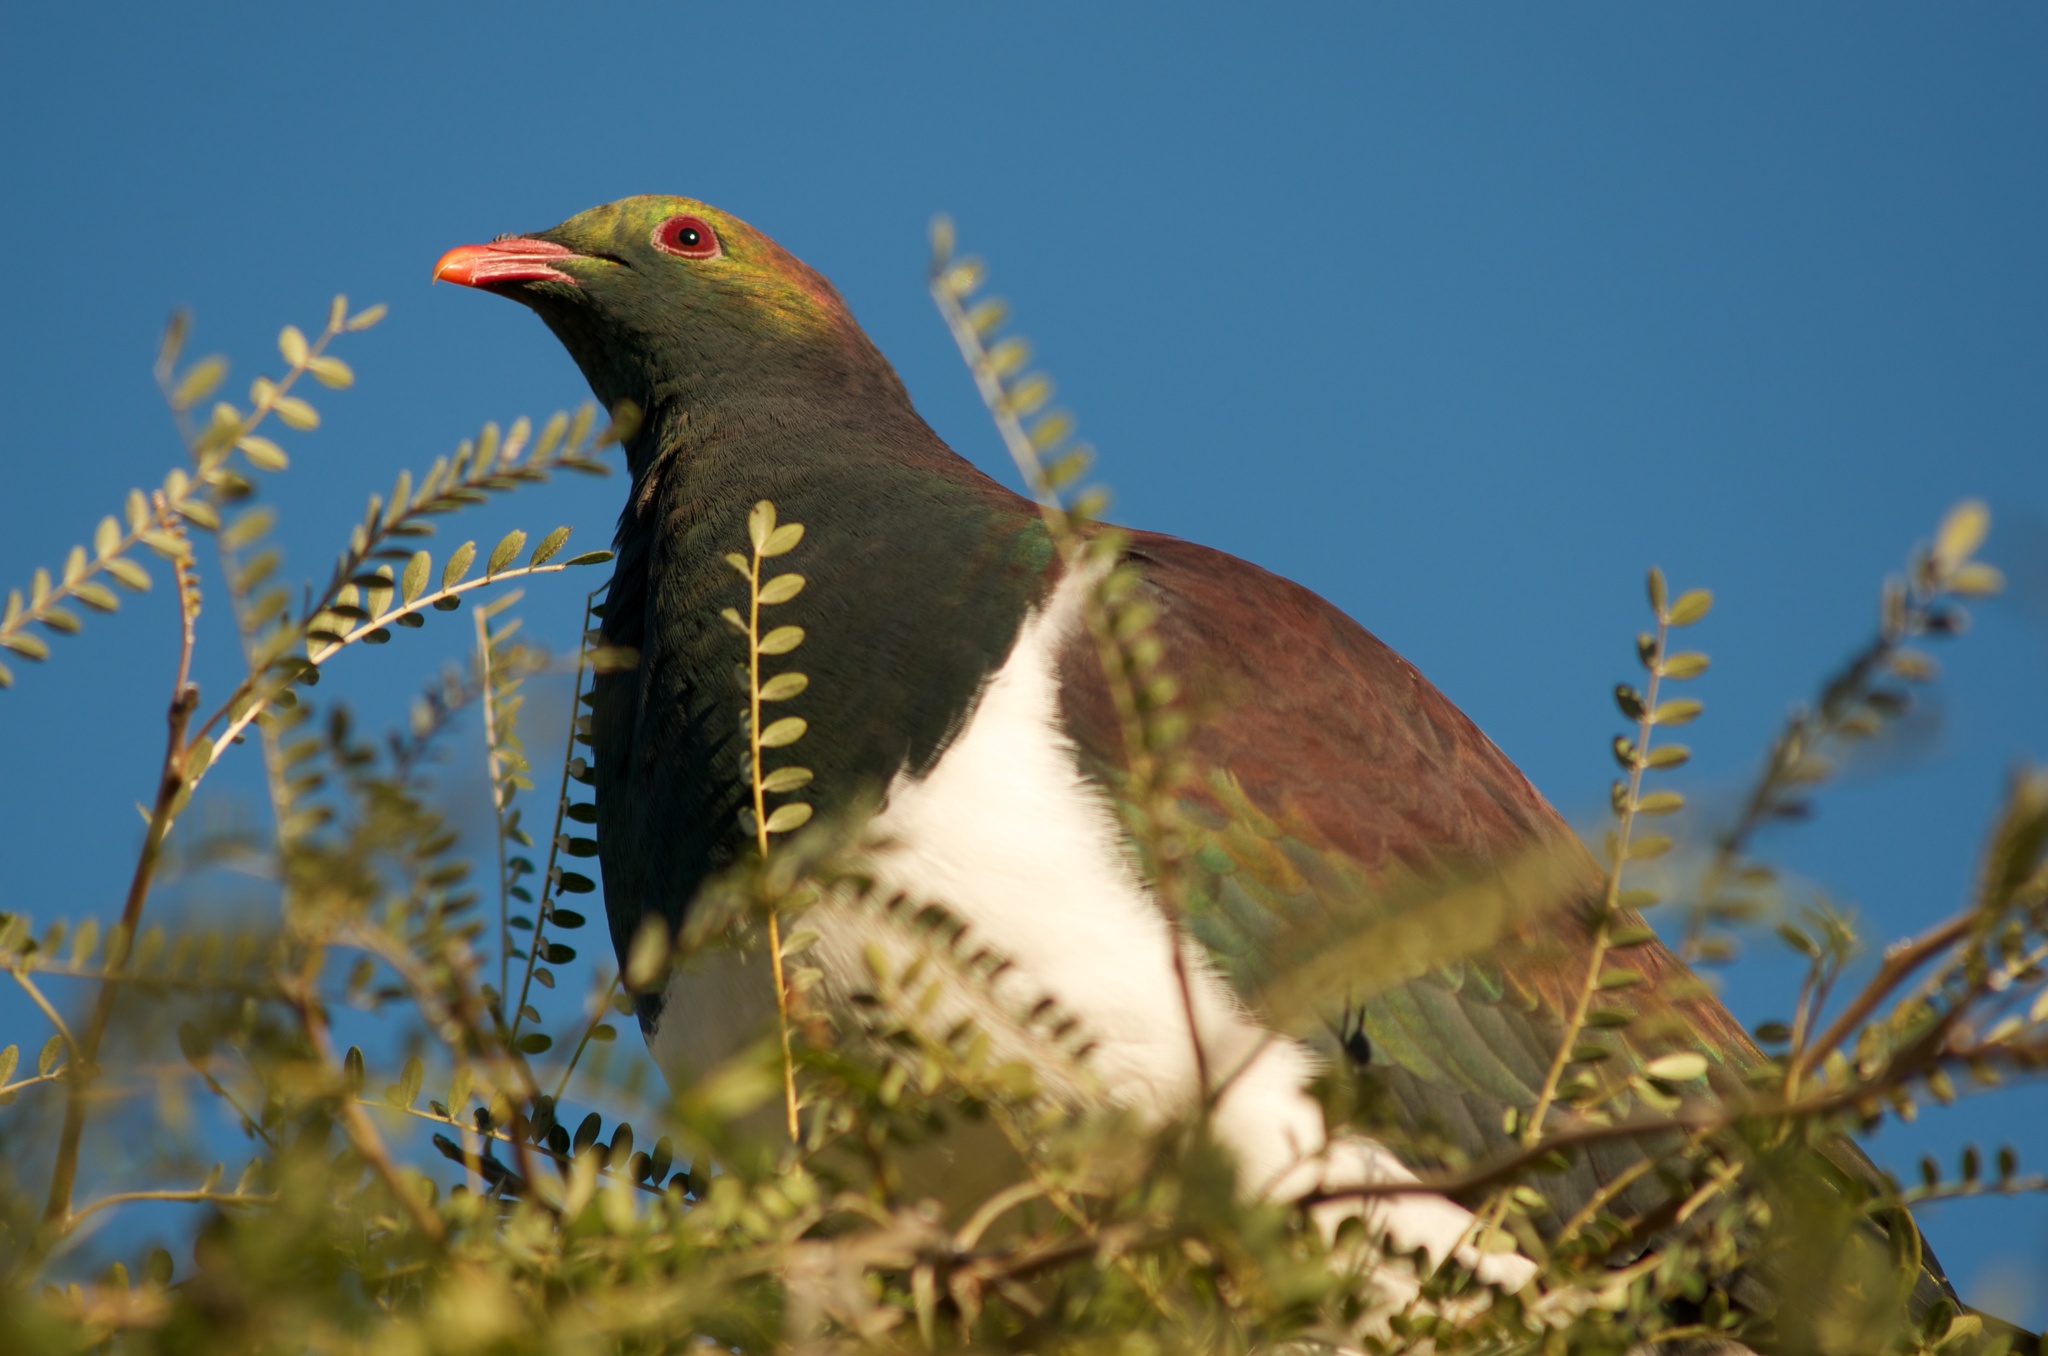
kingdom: Animalia
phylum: Chordata
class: Aves
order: Columbiformes
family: Columbidae
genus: Hemiphaga
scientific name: Hemiphaga novaeseelandiae
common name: New zealand pigeon
